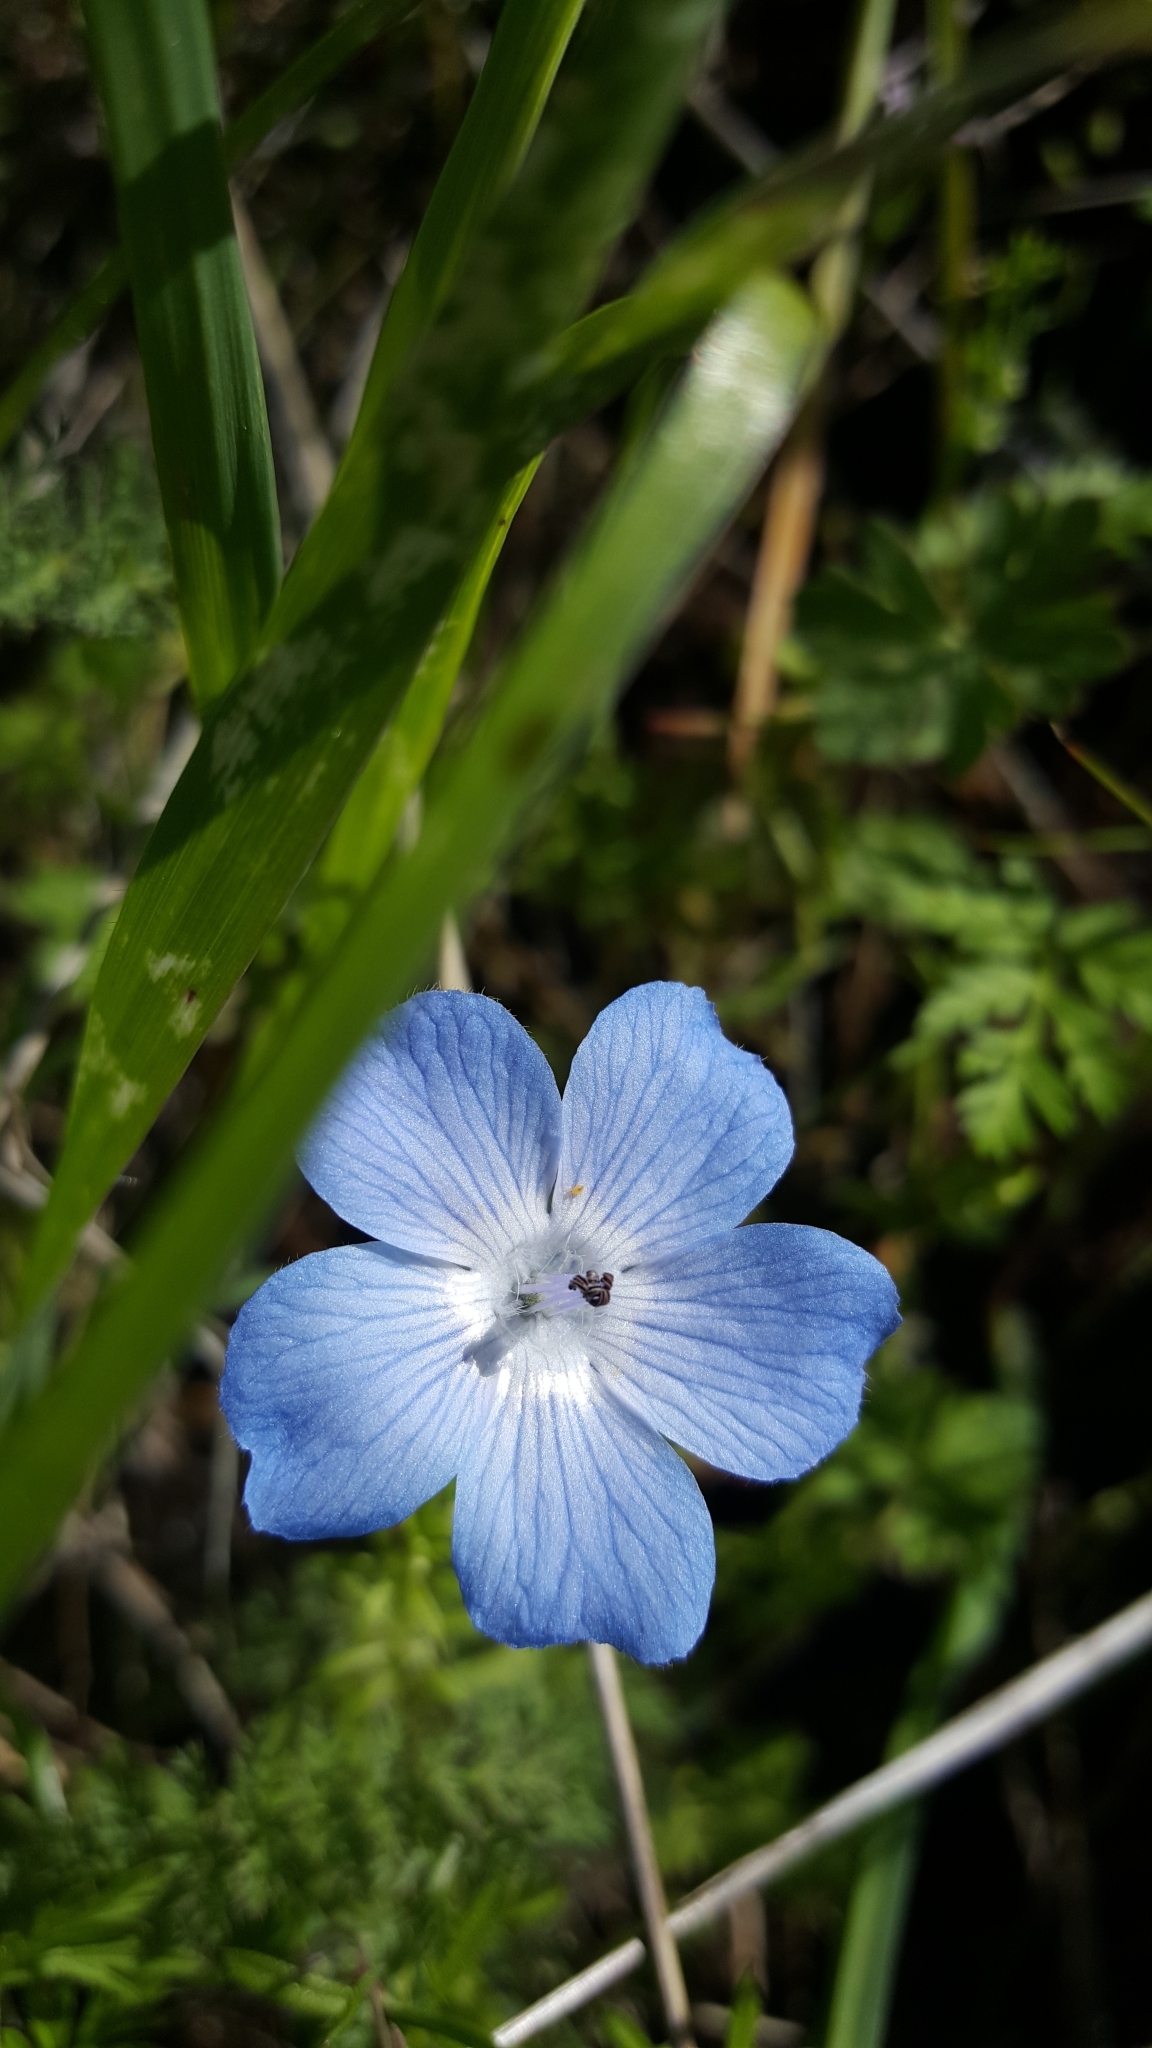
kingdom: Plantae
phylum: Tracheophyta
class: Magnoliopsida
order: Boraginales
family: Hydrophyllaceae
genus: Nemophila
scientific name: Nemophila menziesii
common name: Baby's-blue-eyes
